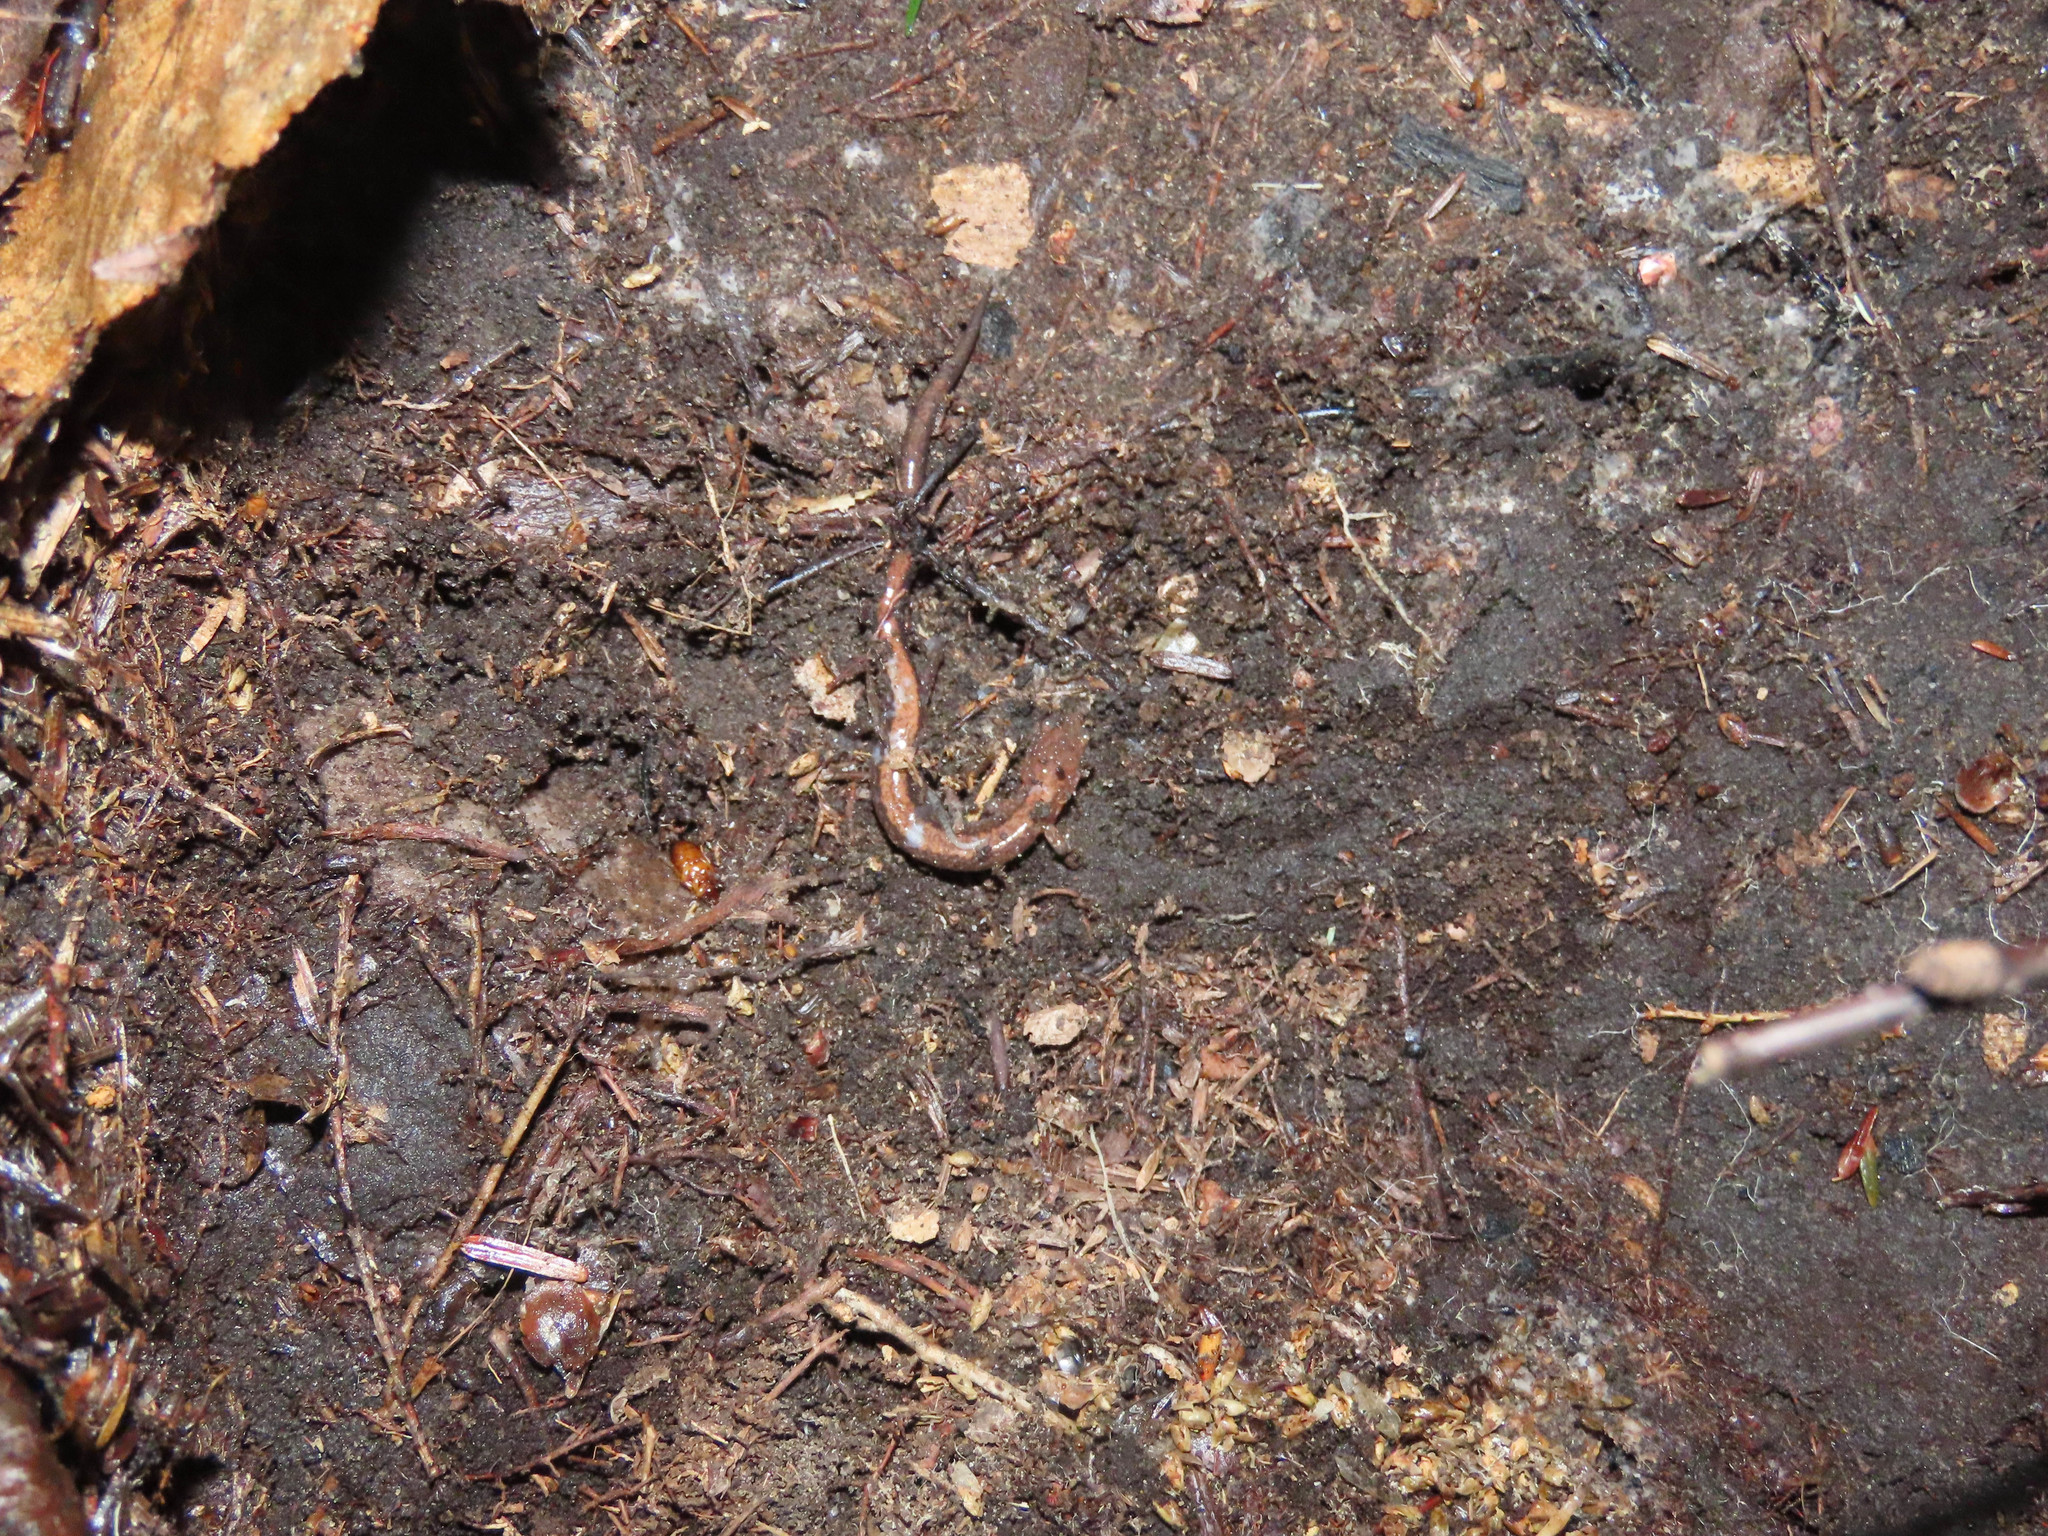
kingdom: Animalia
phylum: Chordata
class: Amphibia
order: Caudata
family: Plethodontidae
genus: Plethodon
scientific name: Plethodon cinereus
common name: Redback salamander
